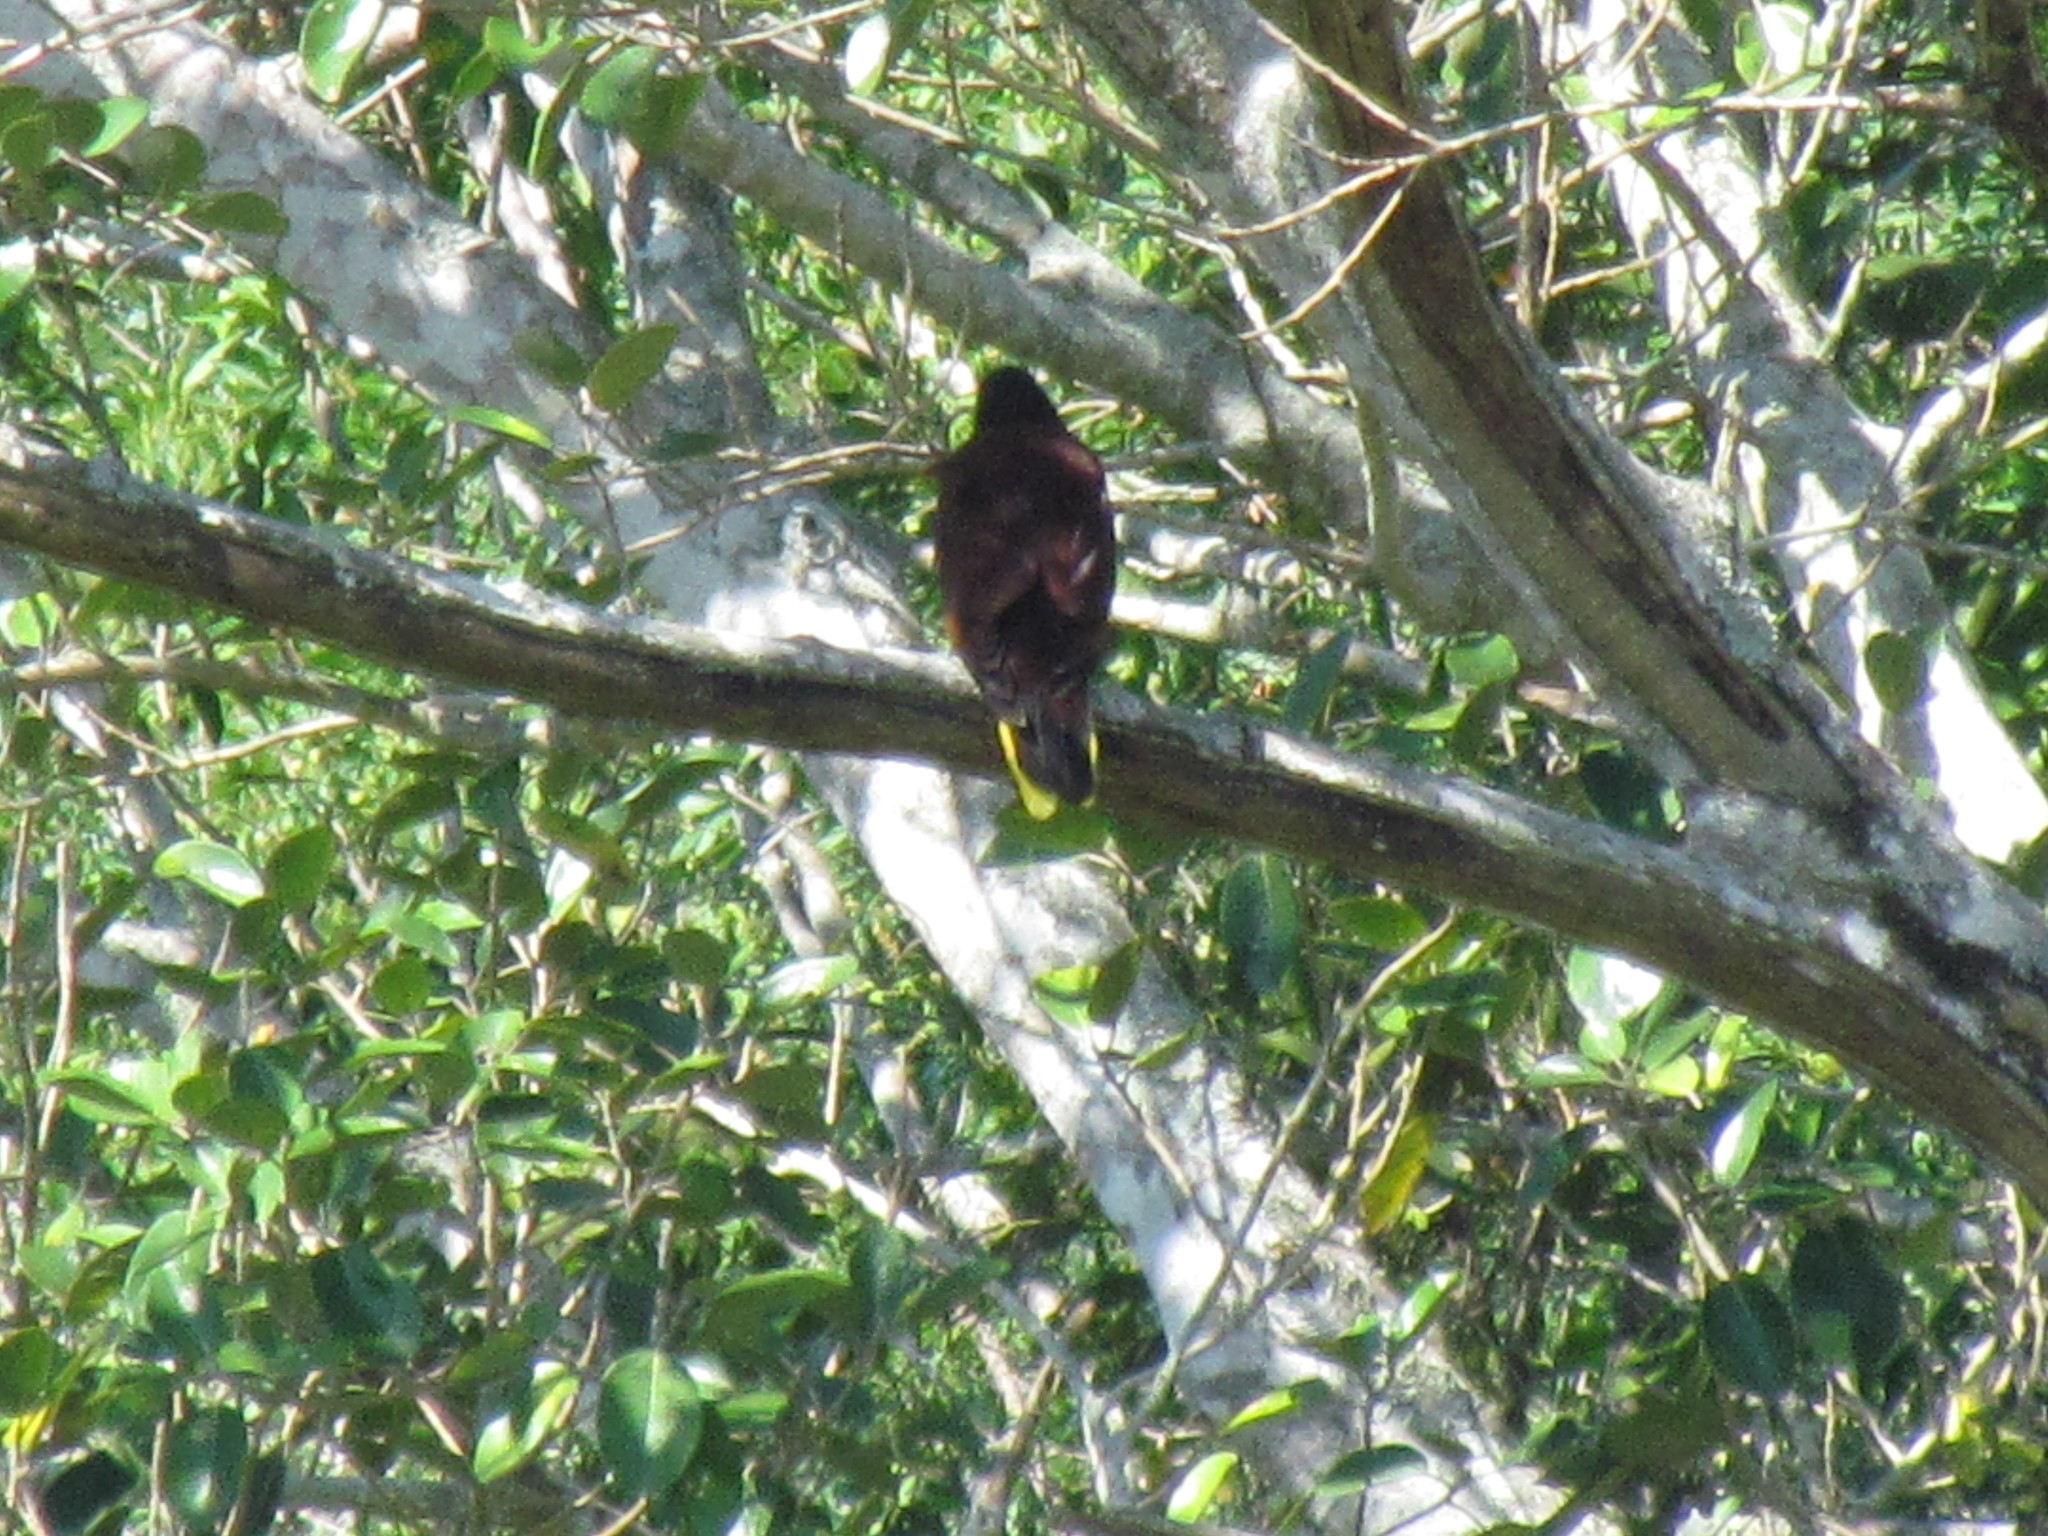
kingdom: Animalia
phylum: Chordata
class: Aves
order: Passeriformes
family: Icteridae
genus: Psarocolius
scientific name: Psarocolius montezuma
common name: Montezuma oropendola
